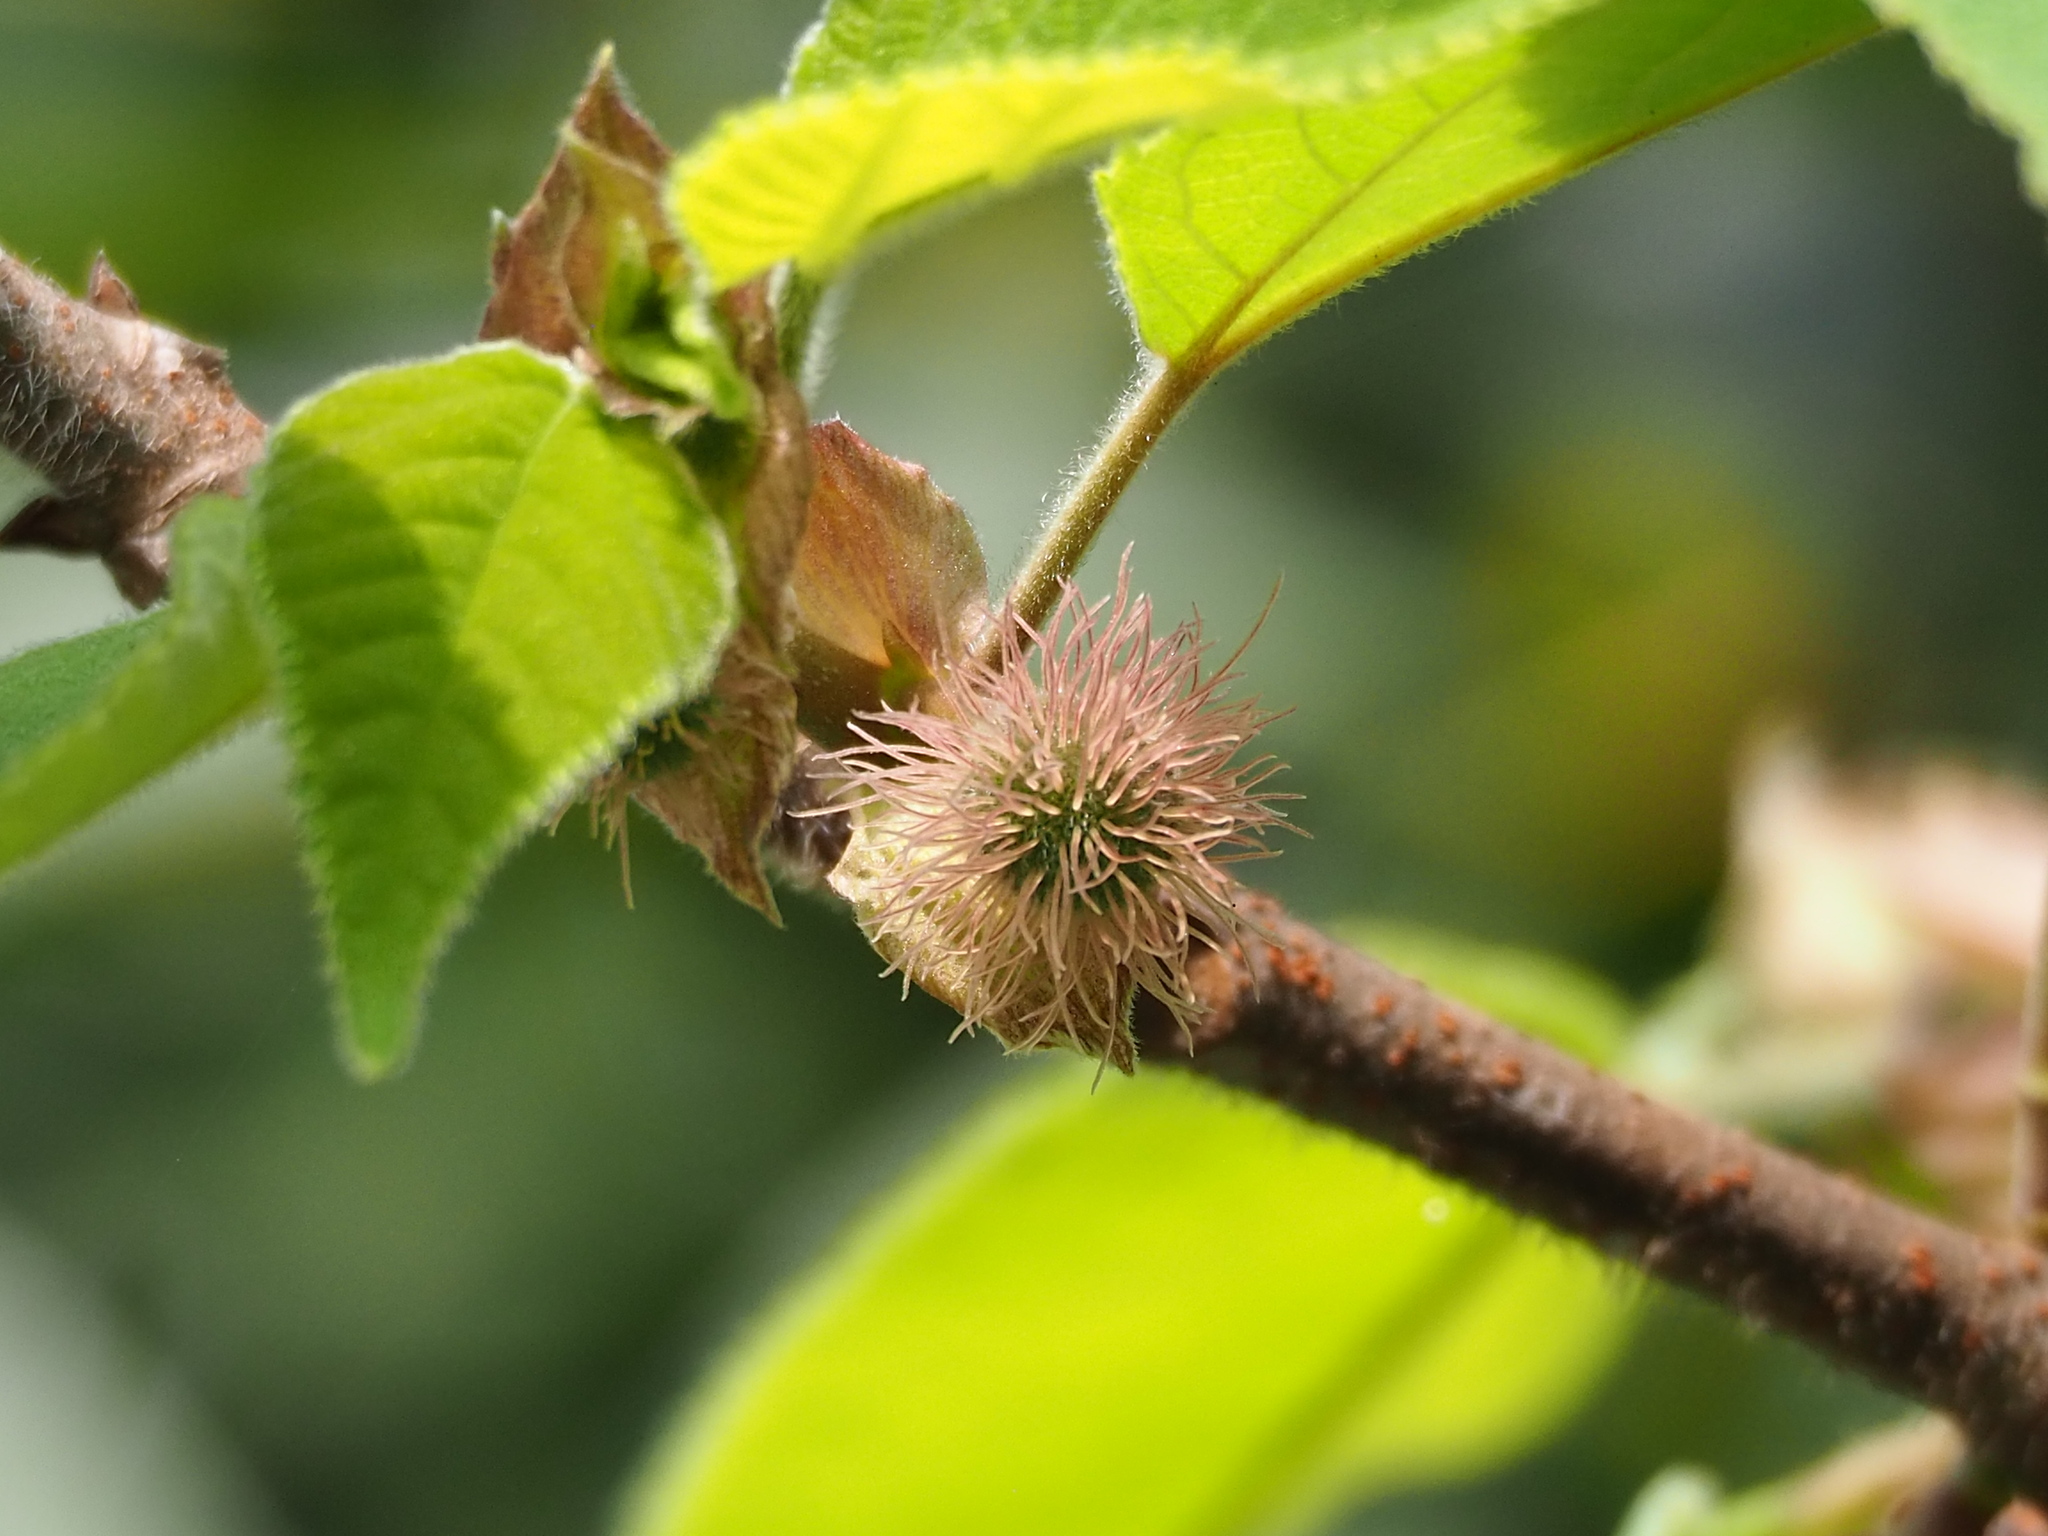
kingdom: Plantae
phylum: Tracheophyta
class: Magnoliopsida
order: Rosales
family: Moraceae
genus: Broussonetia
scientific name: Broussonetia papyrifera
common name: Paper mulberry
